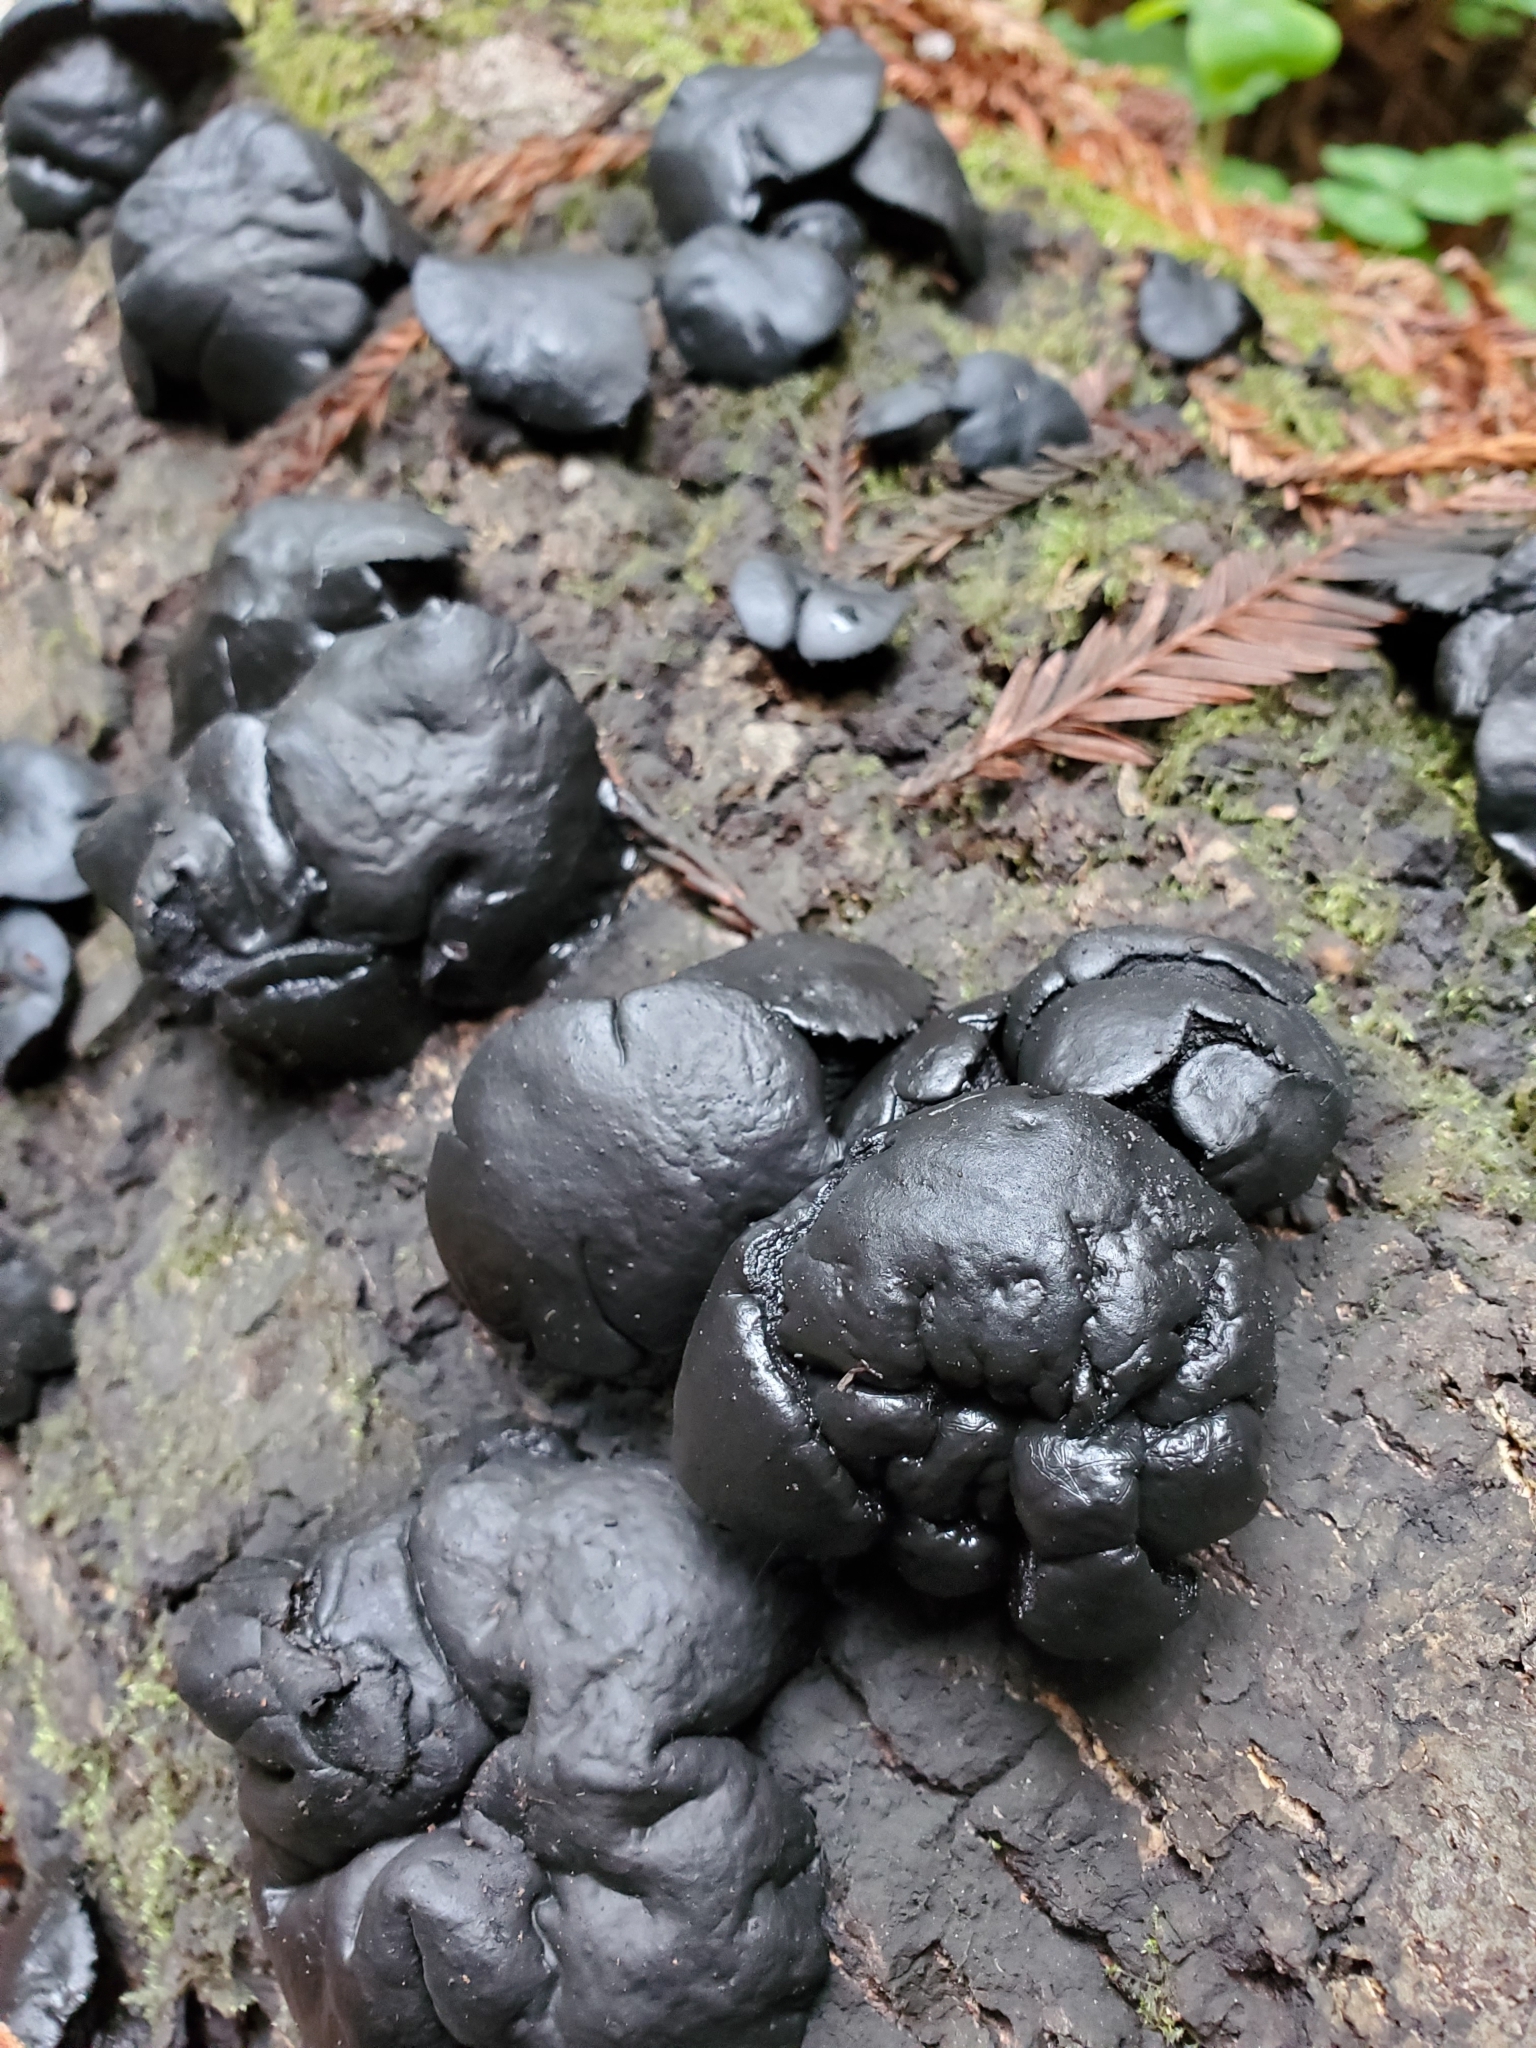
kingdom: Fungi
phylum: Ascomycota
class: Leotiomycetes
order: Phacidiales
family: Phacidiaceae
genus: Bulgaria
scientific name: Bulgaria inquinans
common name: Black bulgar
